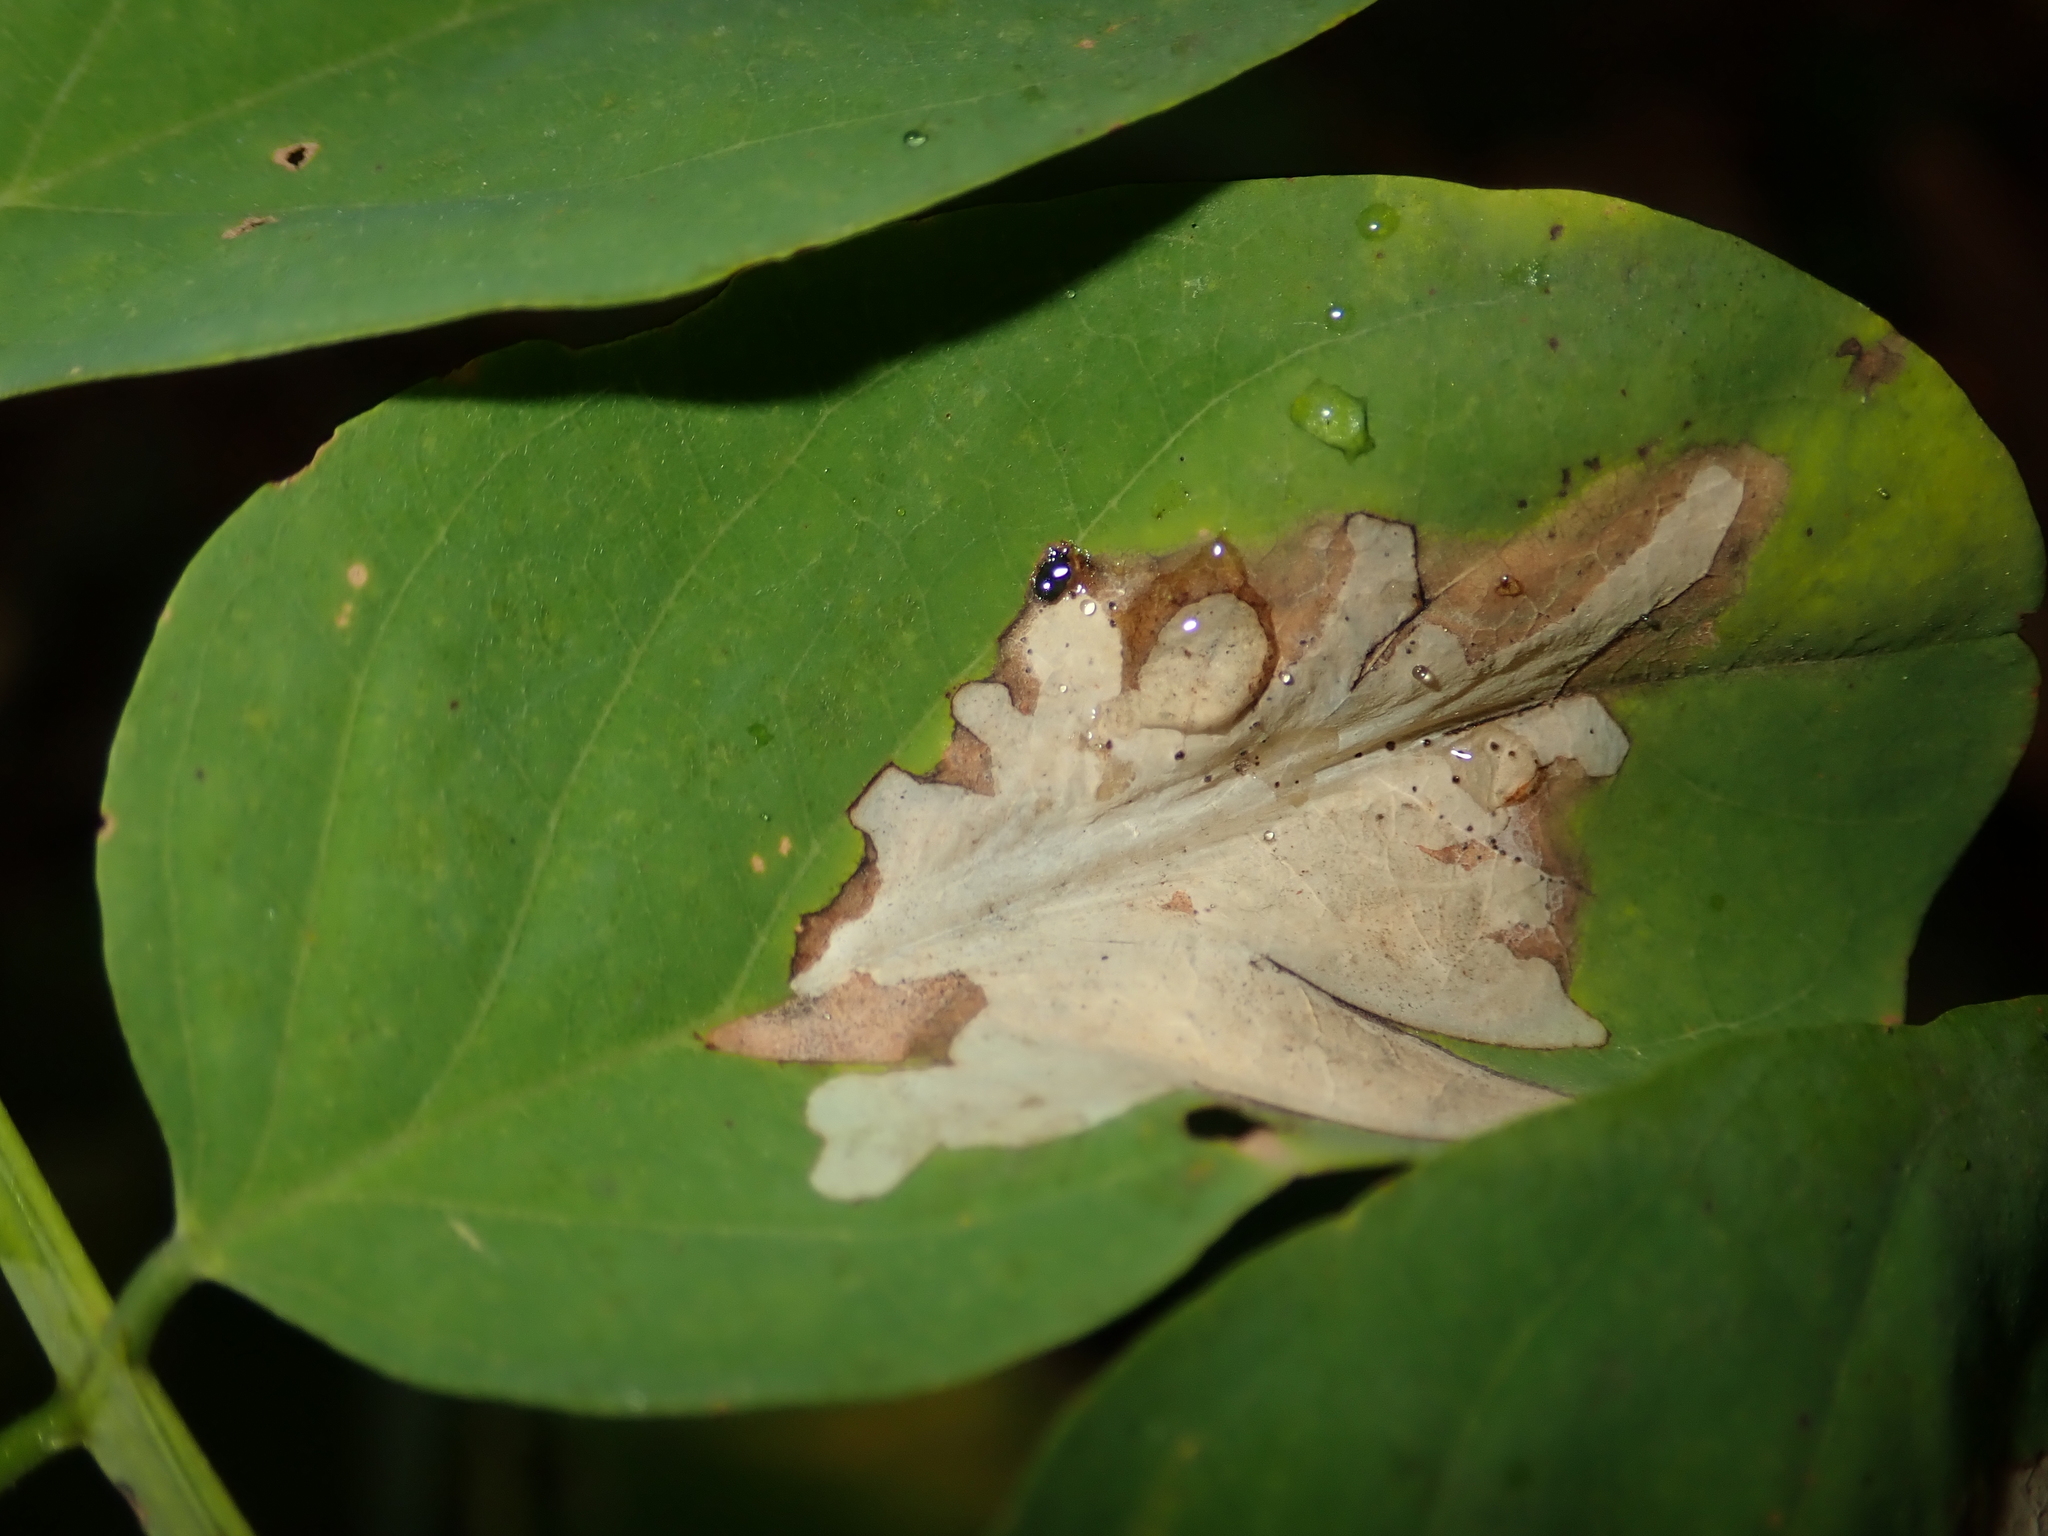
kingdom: Animalia
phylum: Arthropoda
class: Insecta
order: Lepidoptera
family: Gracillariidae
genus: Parectopa
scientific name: Parectopa robiniella
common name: Locust digitate leafminer
